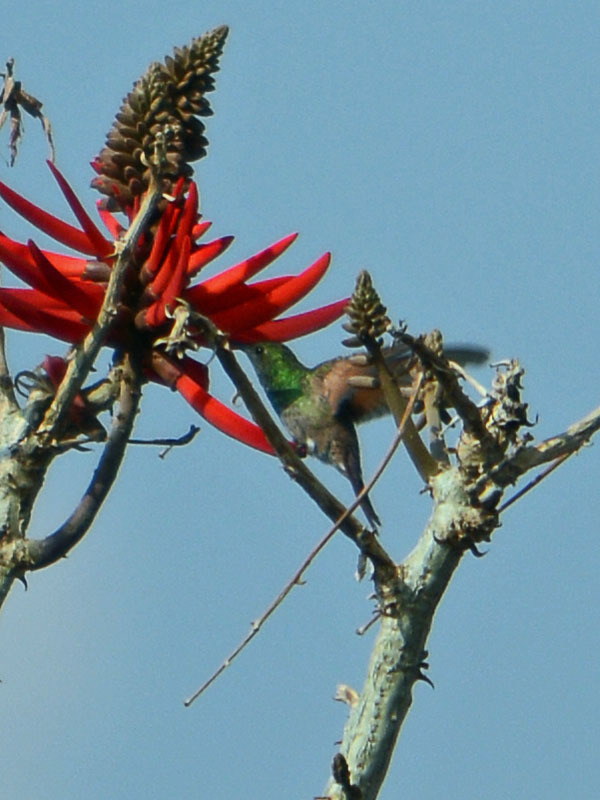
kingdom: Animalia
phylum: Chordata
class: Aves
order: Apodiformes
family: Trochilidae
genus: Saucerottia
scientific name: Saucerottia beryllina
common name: Berylline hummingbird
